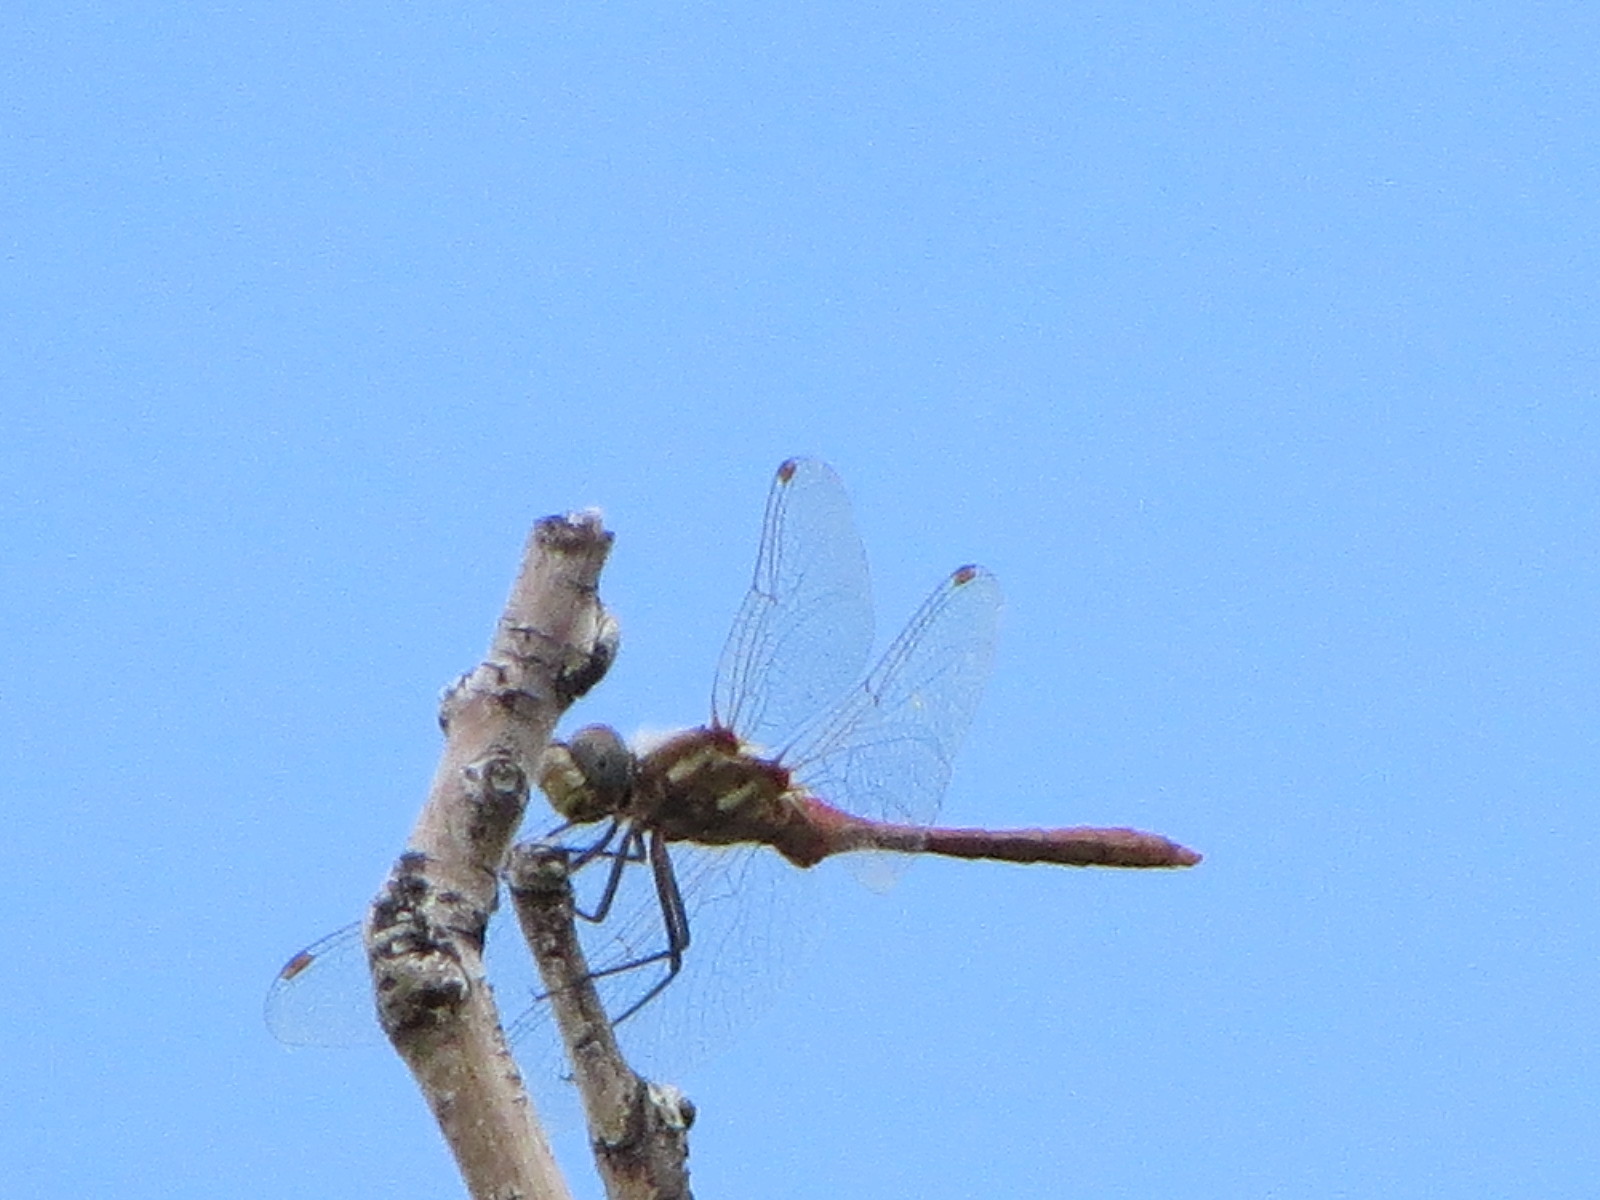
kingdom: Animalia
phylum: Arthropoda
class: Insecta
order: Odonata
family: Libellulidae
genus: Sympetrum
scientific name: Sympetrum pallipes
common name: Striped meadowhawk
